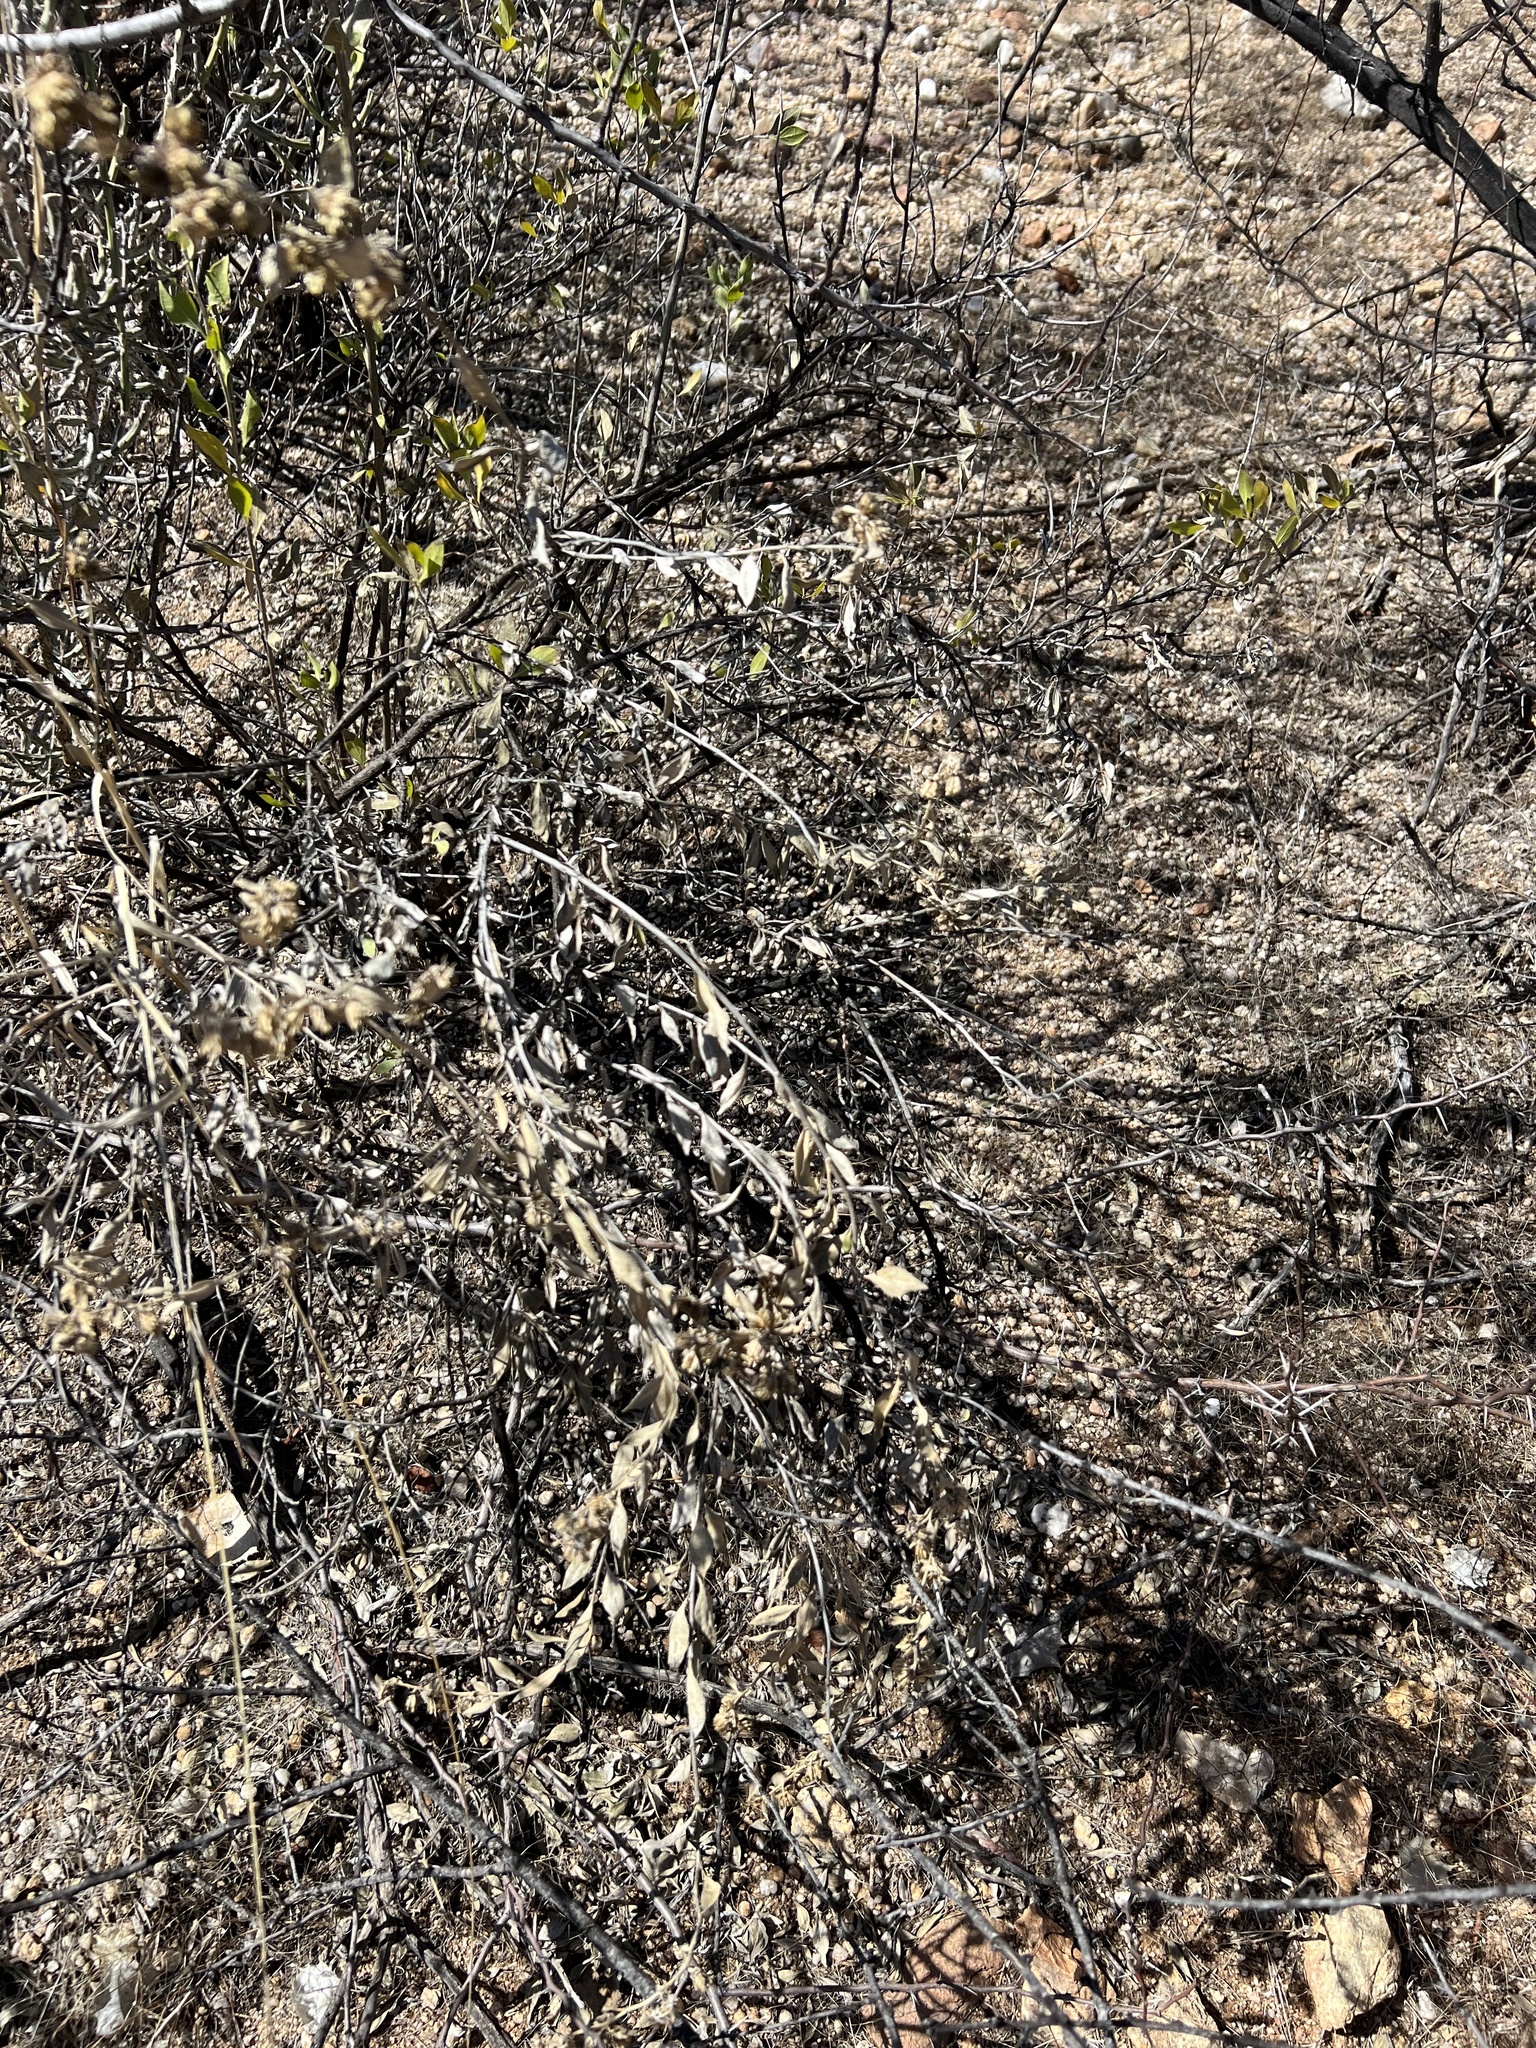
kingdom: Plantae
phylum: Tracheophyta
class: Magnoliopsida
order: Asterales
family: Asteraceae
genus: Flourensia
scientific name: Flourensia cernua
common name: Varnishbush
